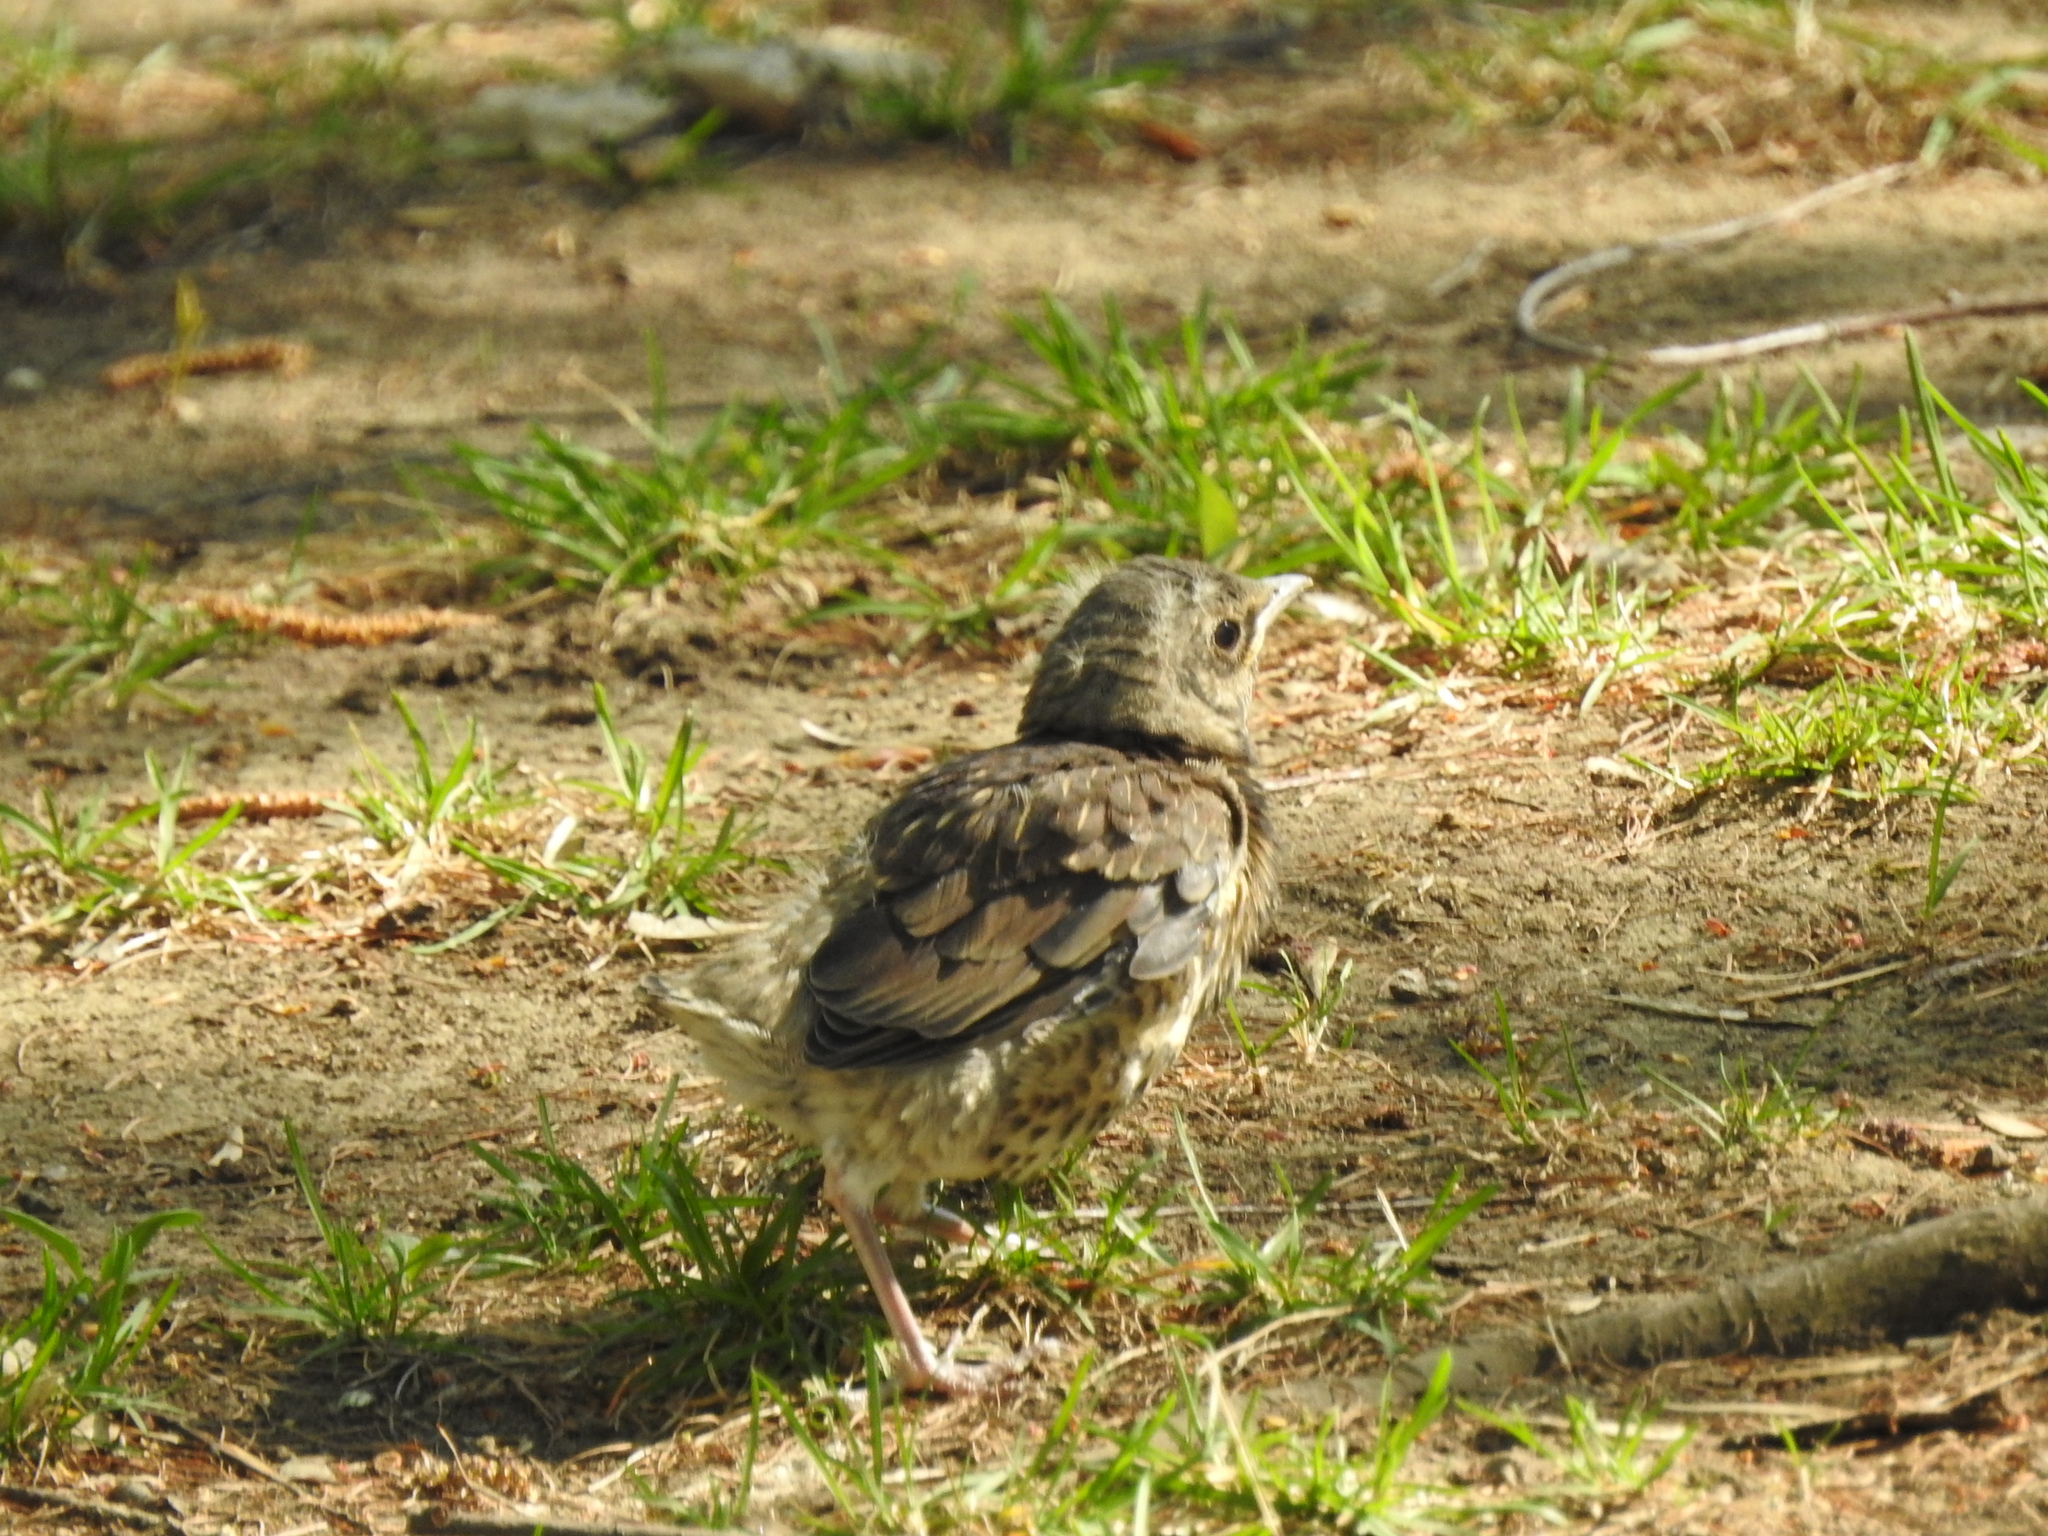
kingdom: Animalia
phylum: Chordata
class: Aves
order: Passeriformes
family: Turdidae
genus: Turdus
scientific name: Turdus pilaris
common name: Fieldfare
